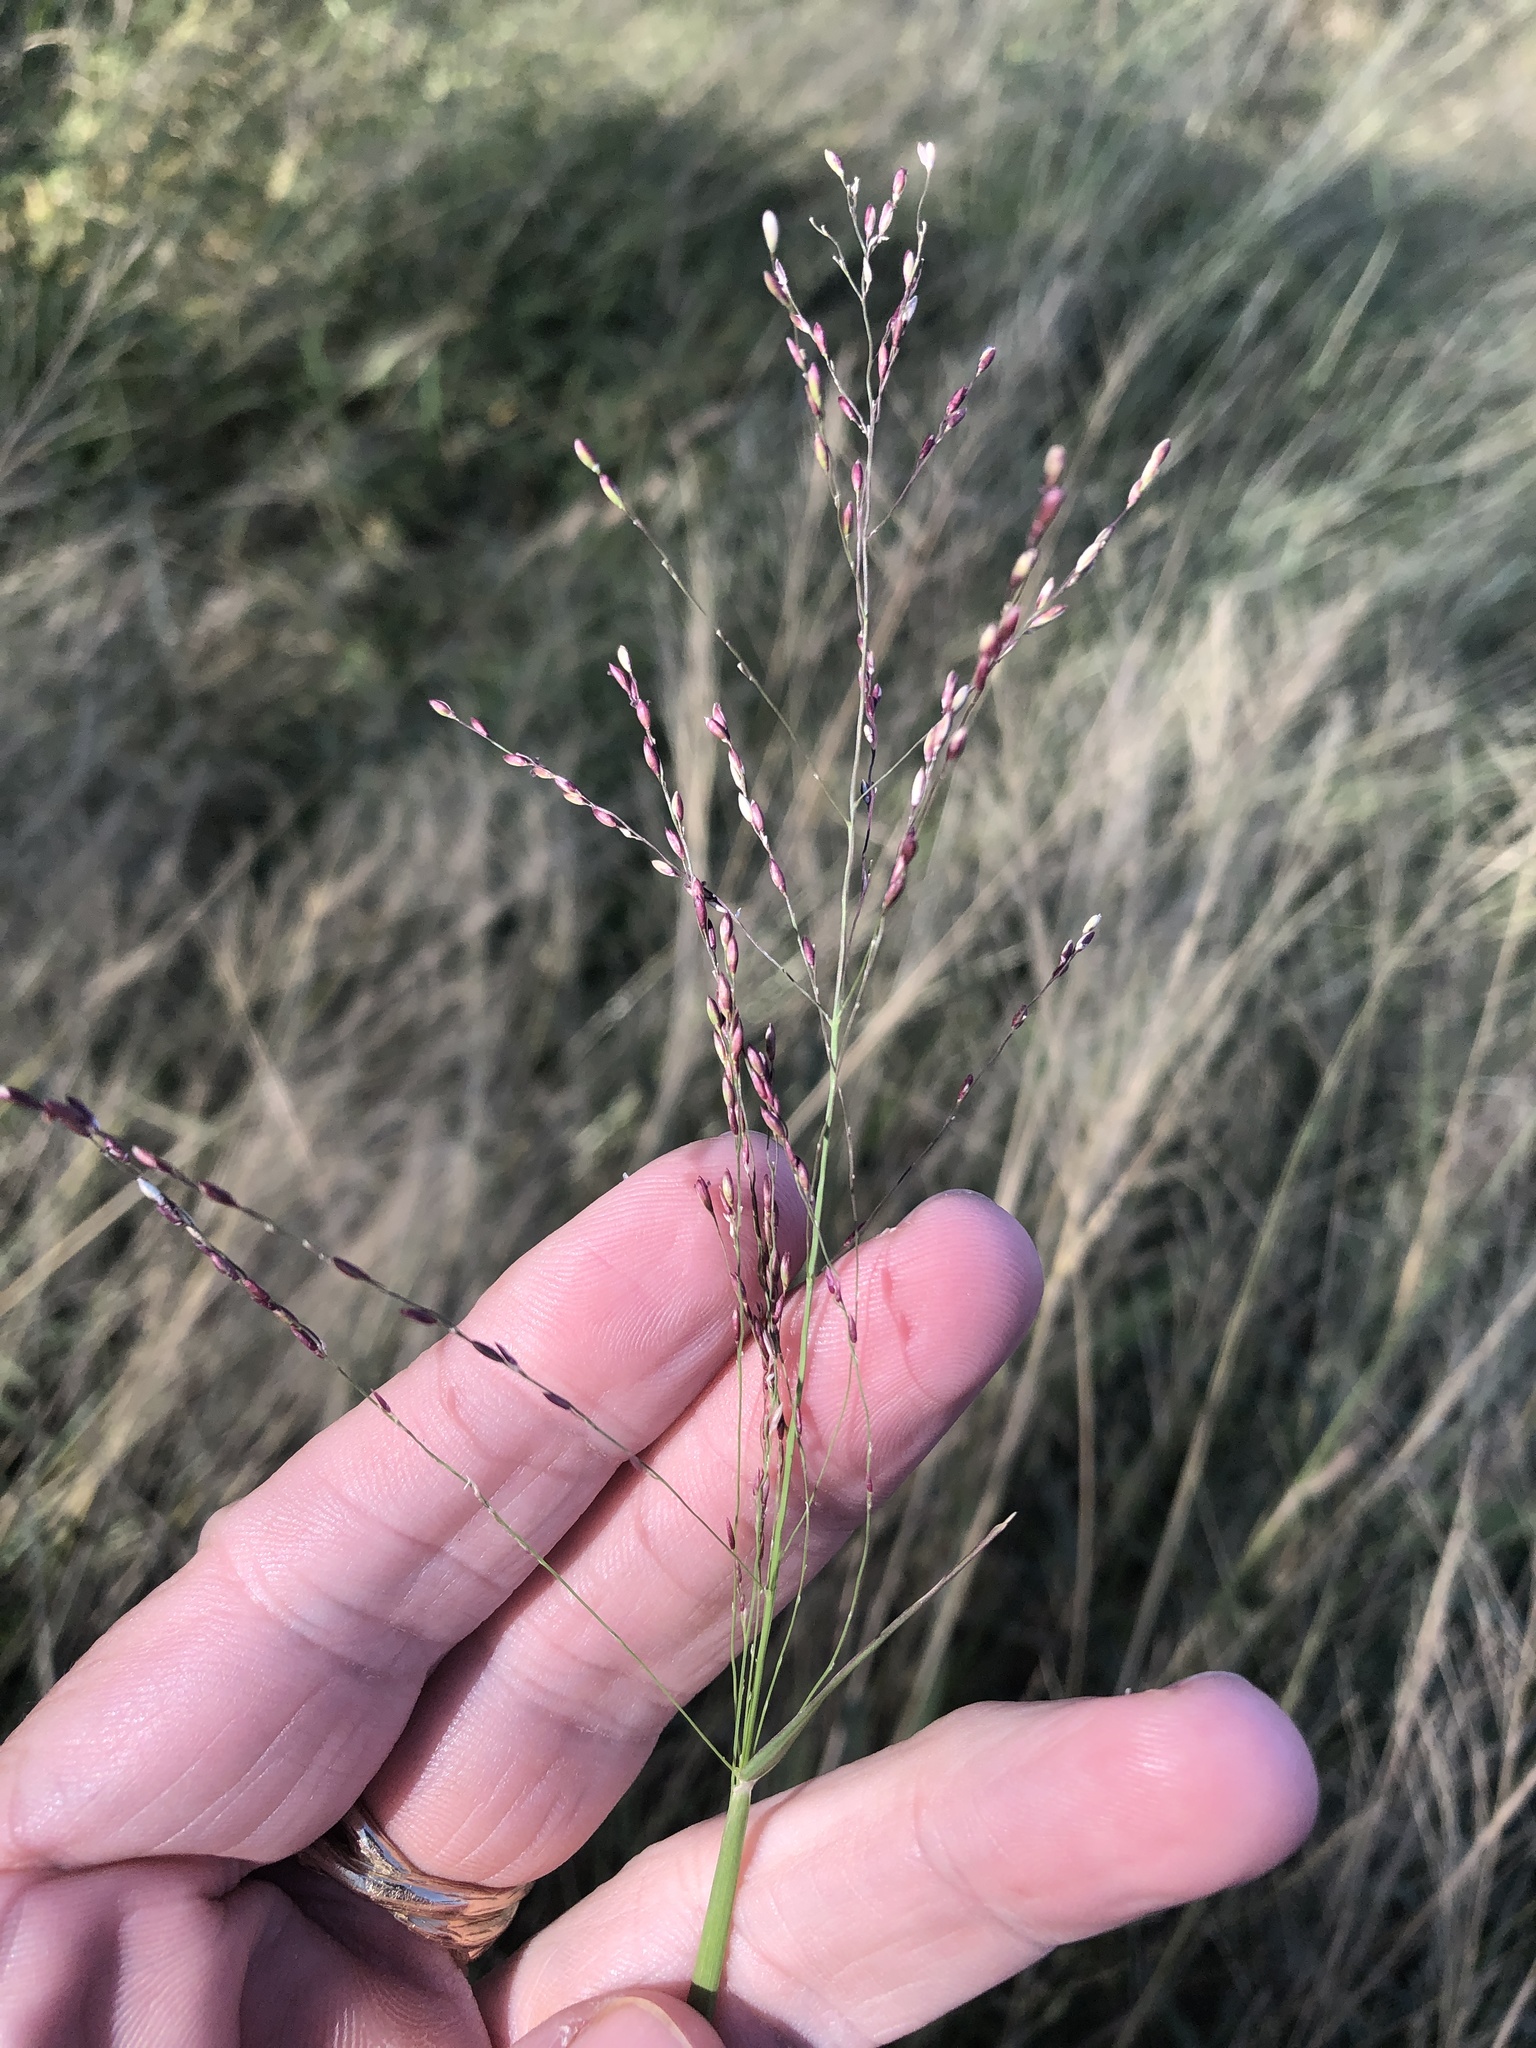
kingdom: Plantae
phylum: Tracheophyta
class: Liliopsida
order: Poales
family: Poaceae
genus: Megathyrsus
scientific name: Megathyrsus maximus
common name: Guineagrass
